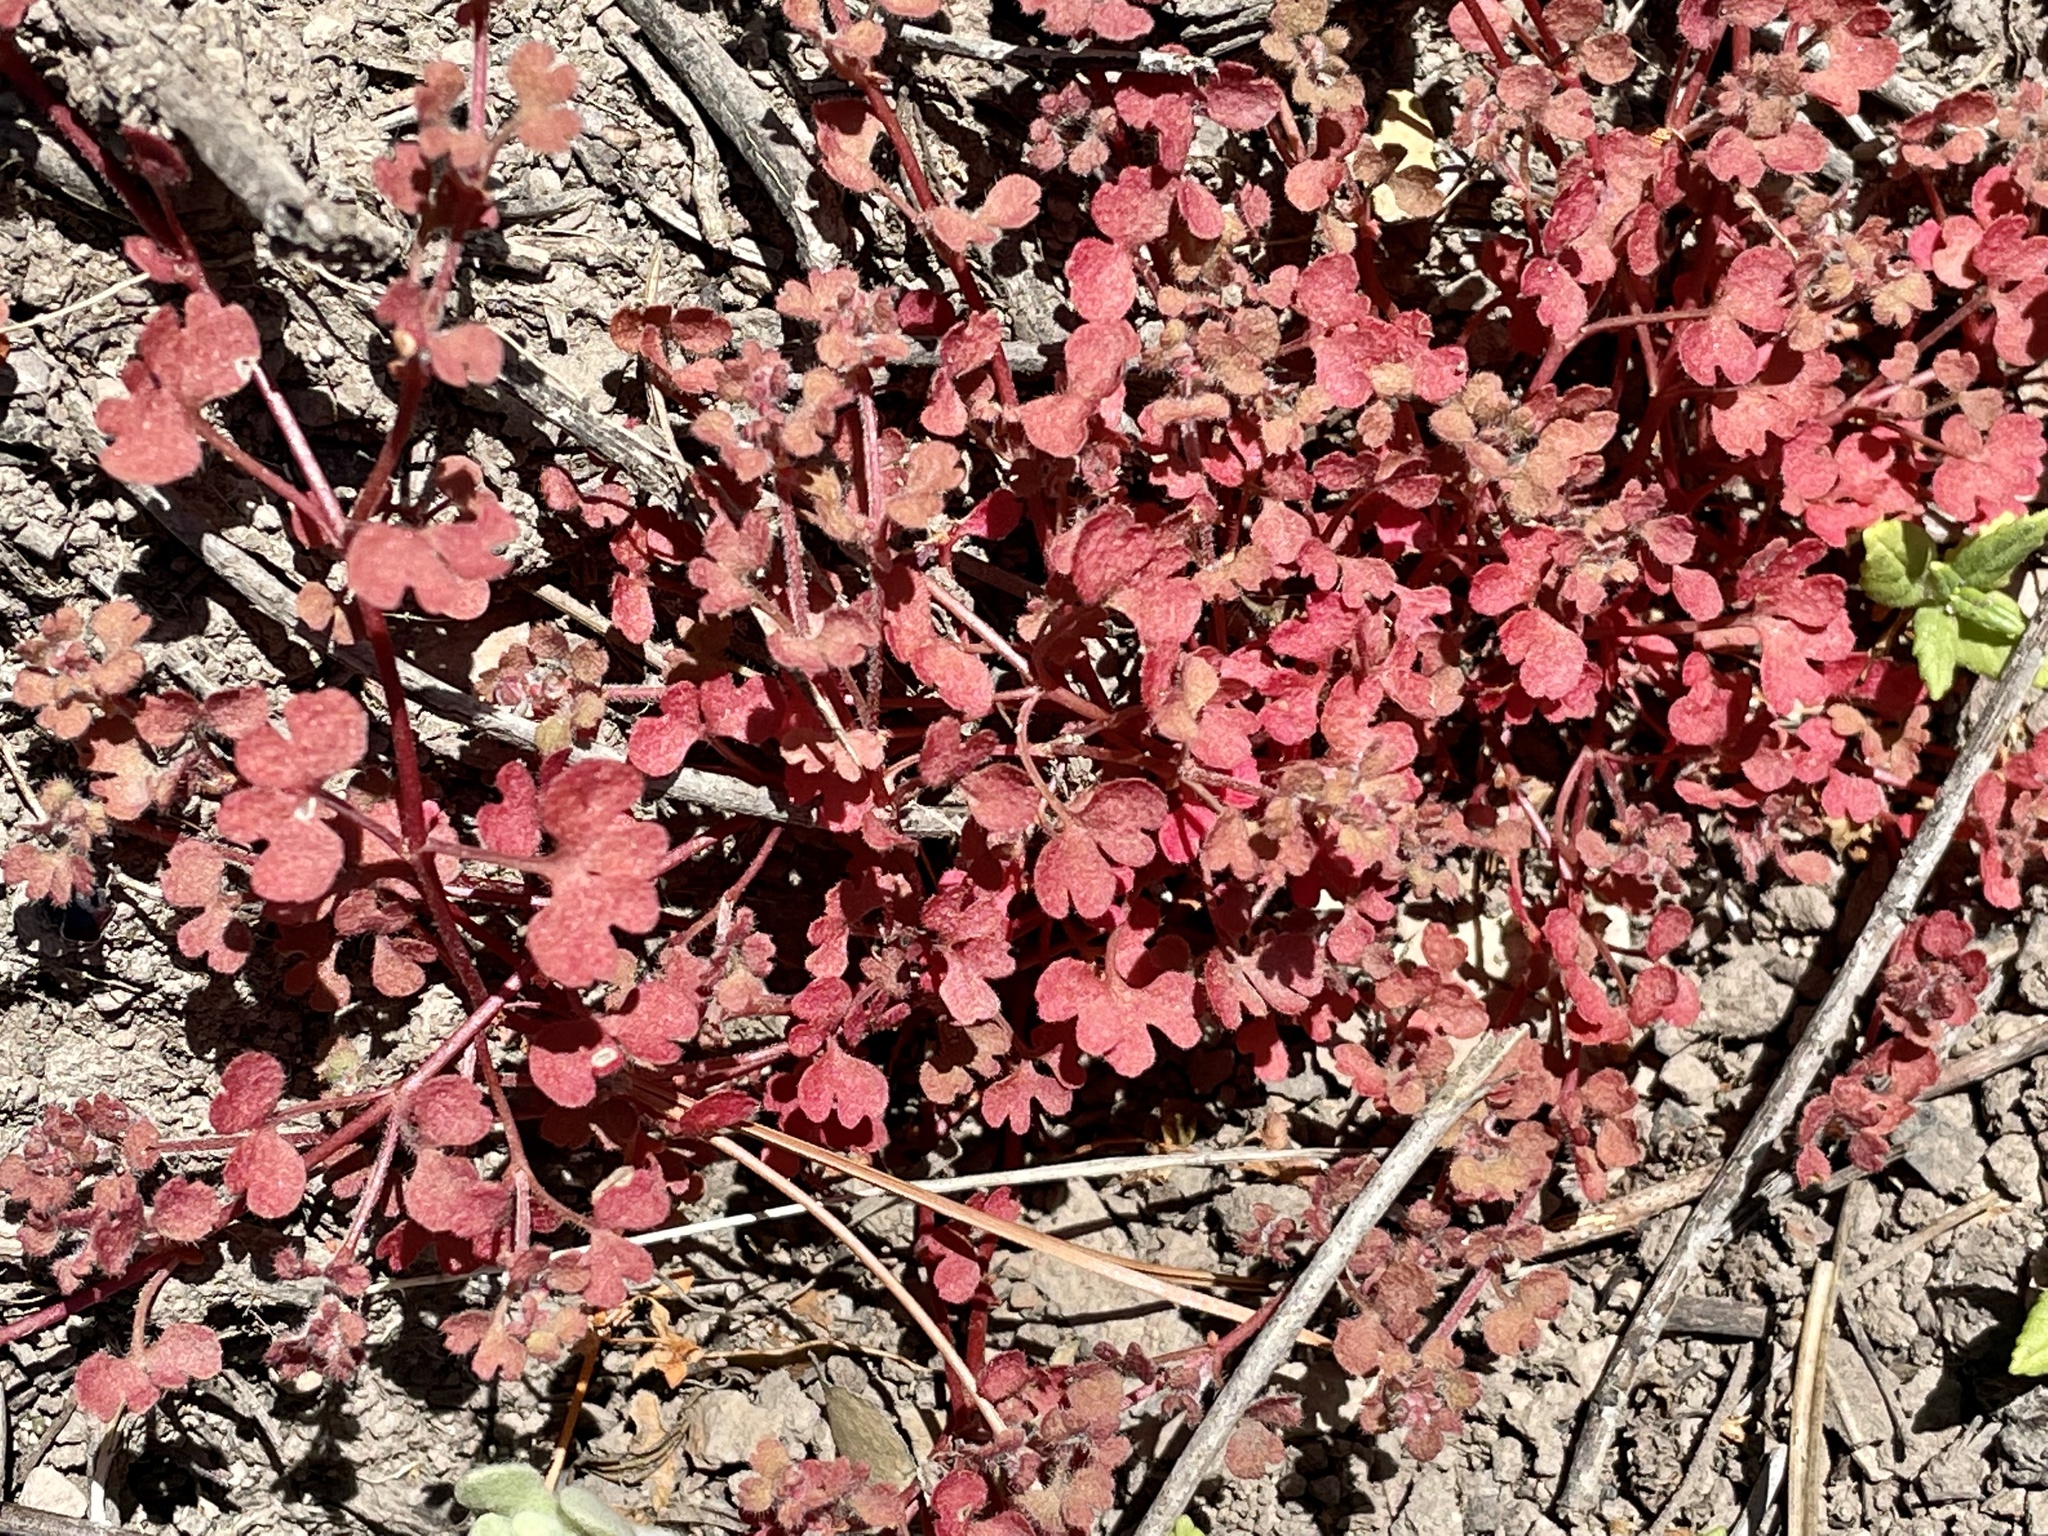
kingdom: Plantae
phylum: Tracheophyta
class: Magnoliopsida
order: Caryophyllales
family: Polygonaceae
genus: Pterostegia
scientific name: Pterostegia drymarioides
